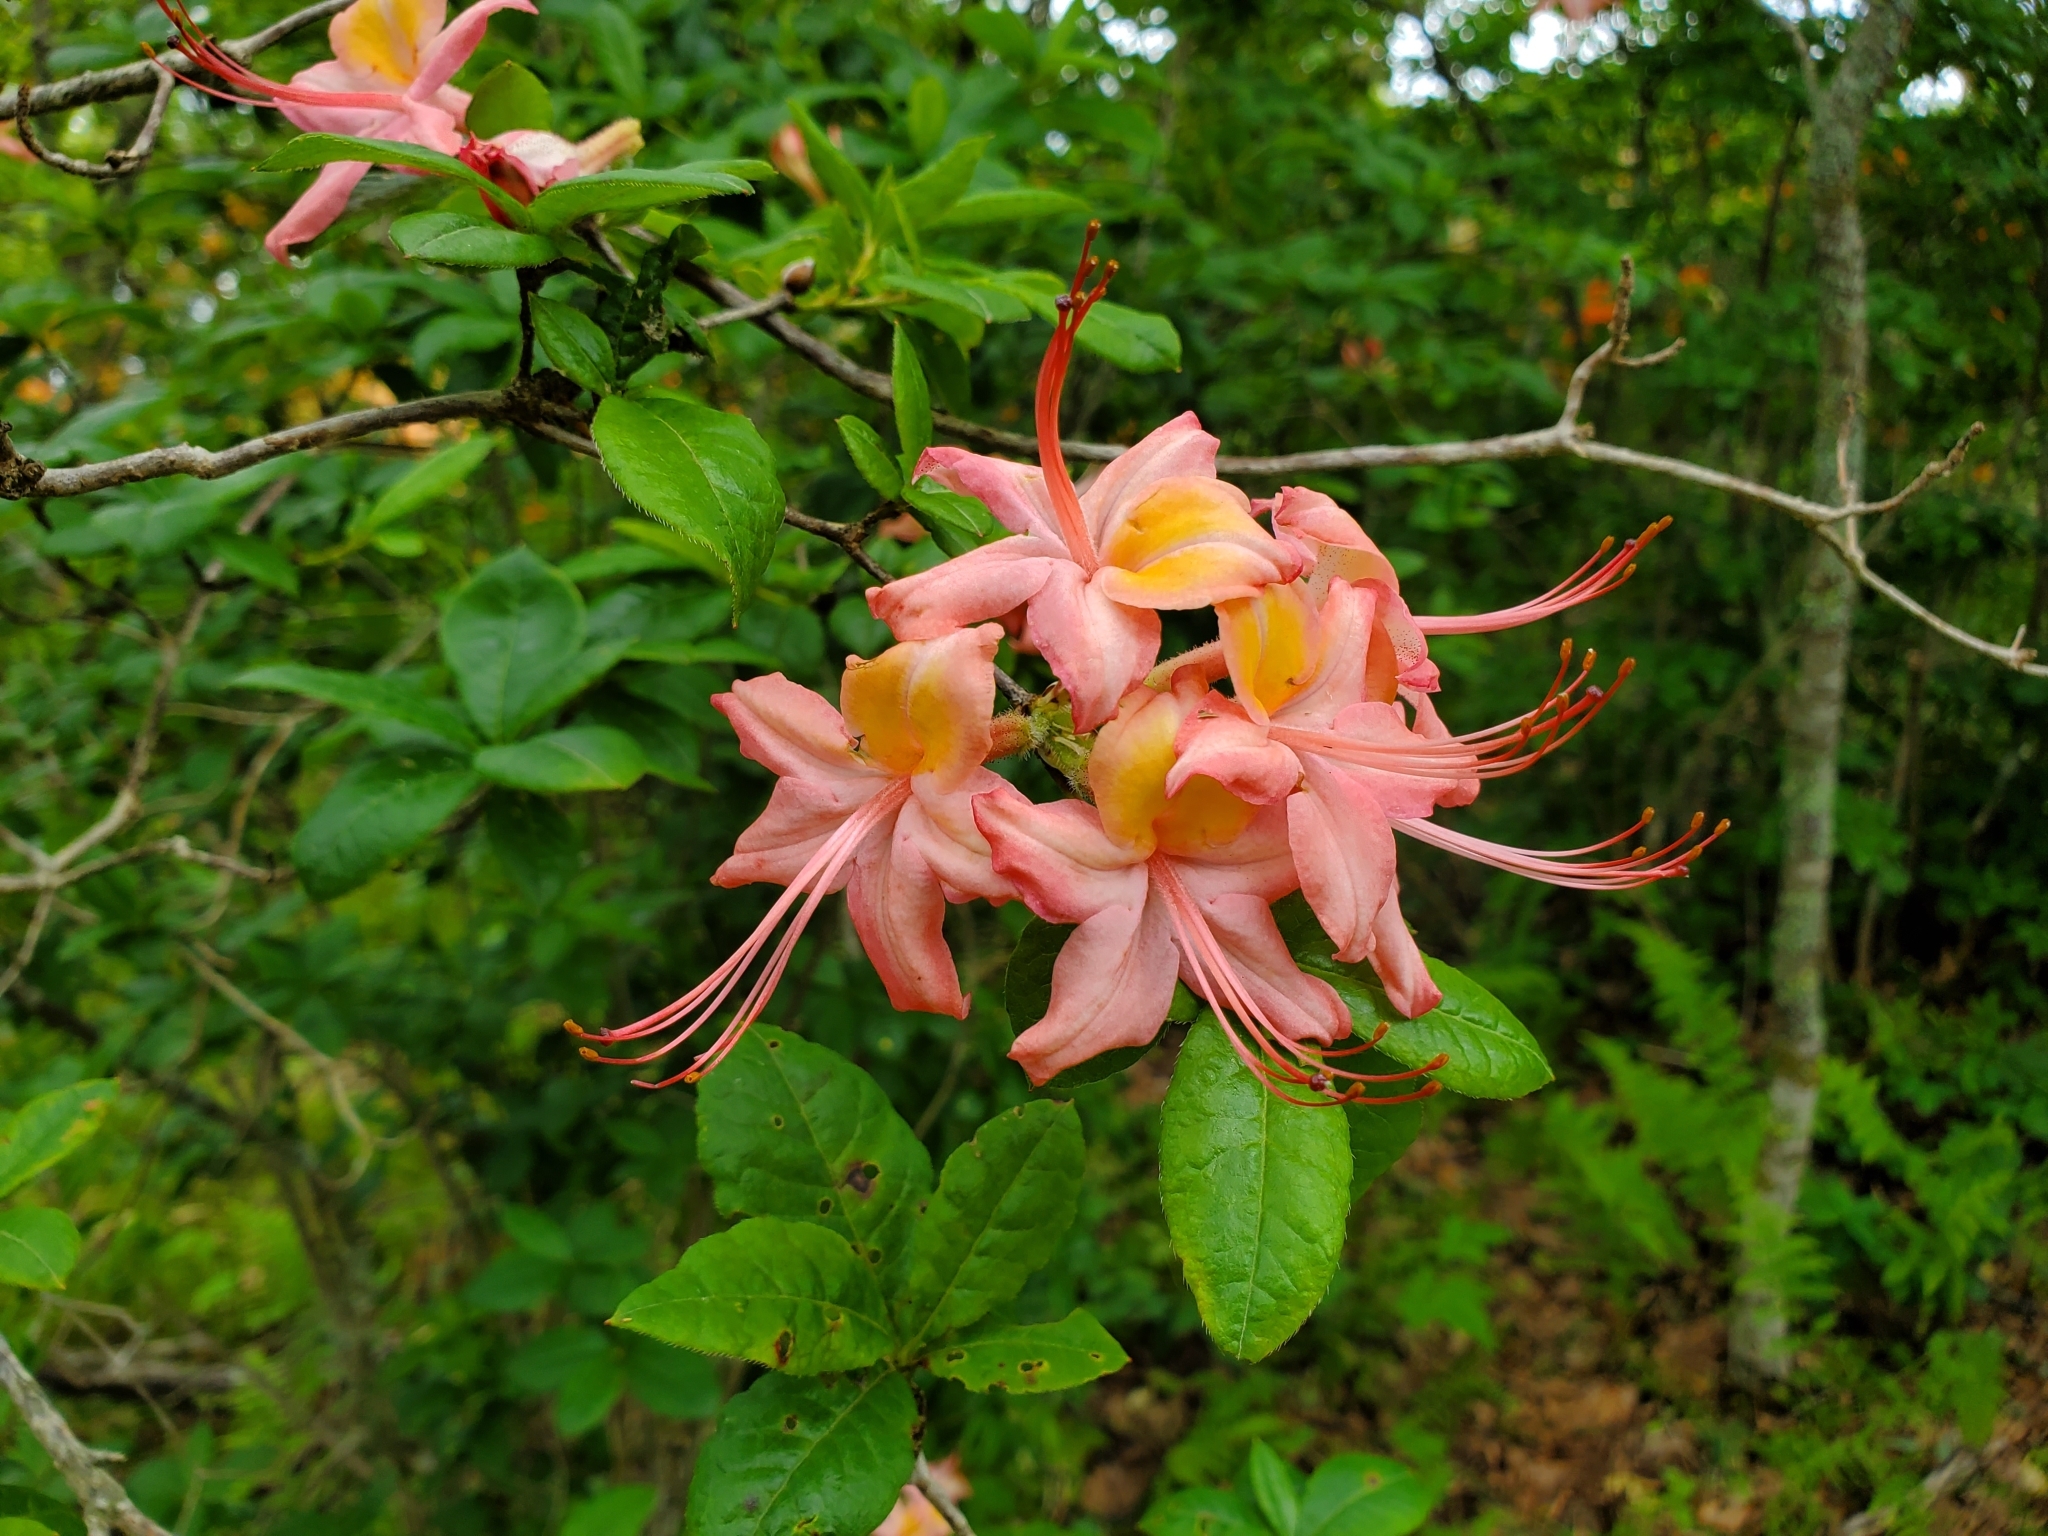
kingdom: Plantae
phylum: Tracheophyta
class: Magnoliopsida
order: Ericales
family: Ericaceae
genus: Rhododendron
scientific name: Rhododendron calendulaceum
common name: Flame azalea
